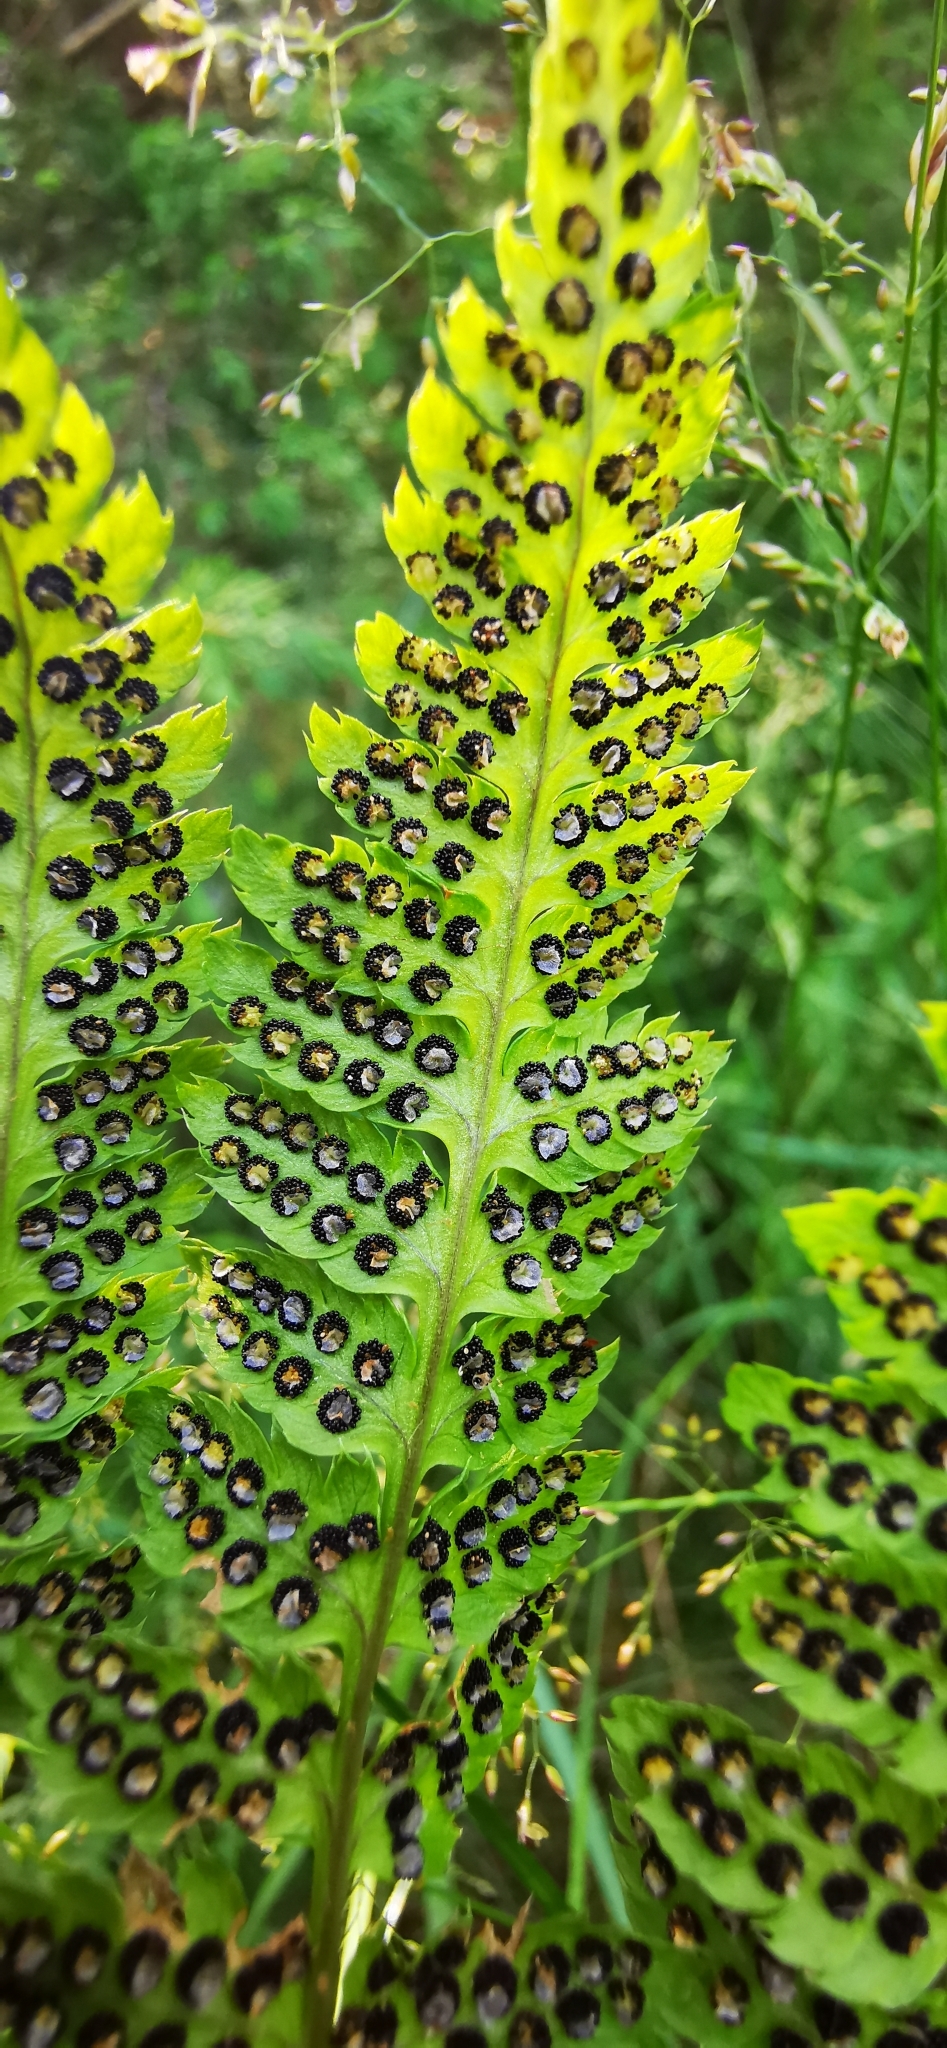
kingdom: Plantae
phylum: Tracheophyta
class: Polypodiopsida
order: Polypodiales
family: Dryopteridaceae
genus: Dryopteris
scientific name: Dryopteris carthusiana
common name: Narrow buckler-fern
